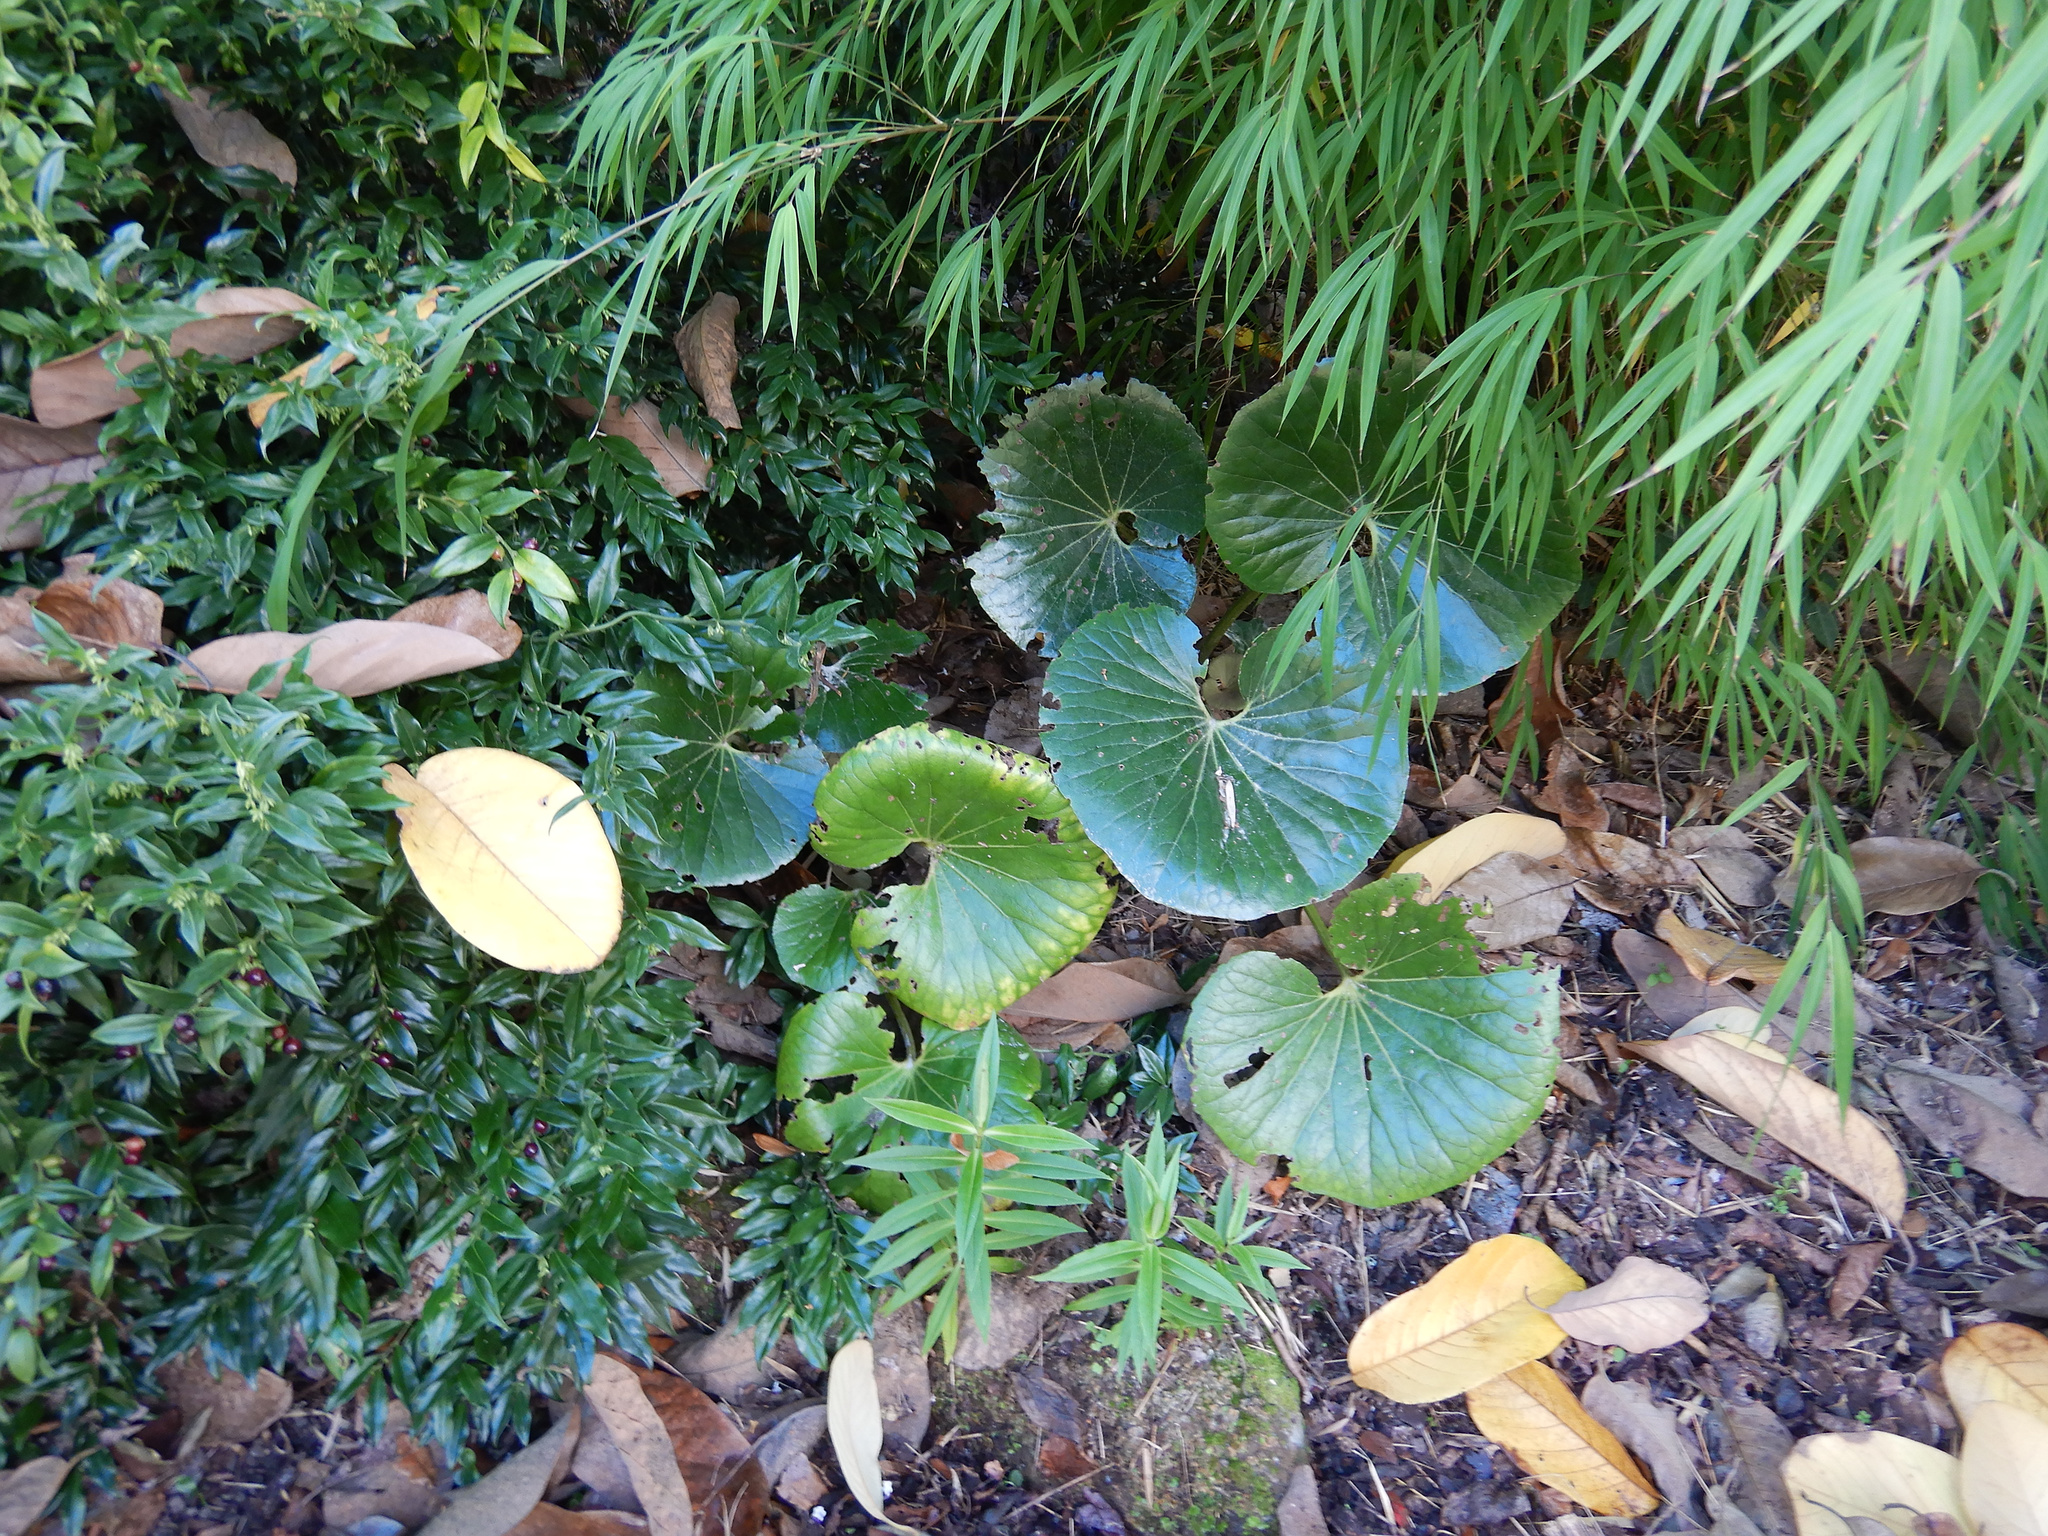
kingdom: Plantae
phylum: Tracheophyta
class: Magnoliopsida
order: Asterales
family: Asteraceae
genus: Farfugium
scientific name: Farfugium japonicum
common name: Leopardplant
